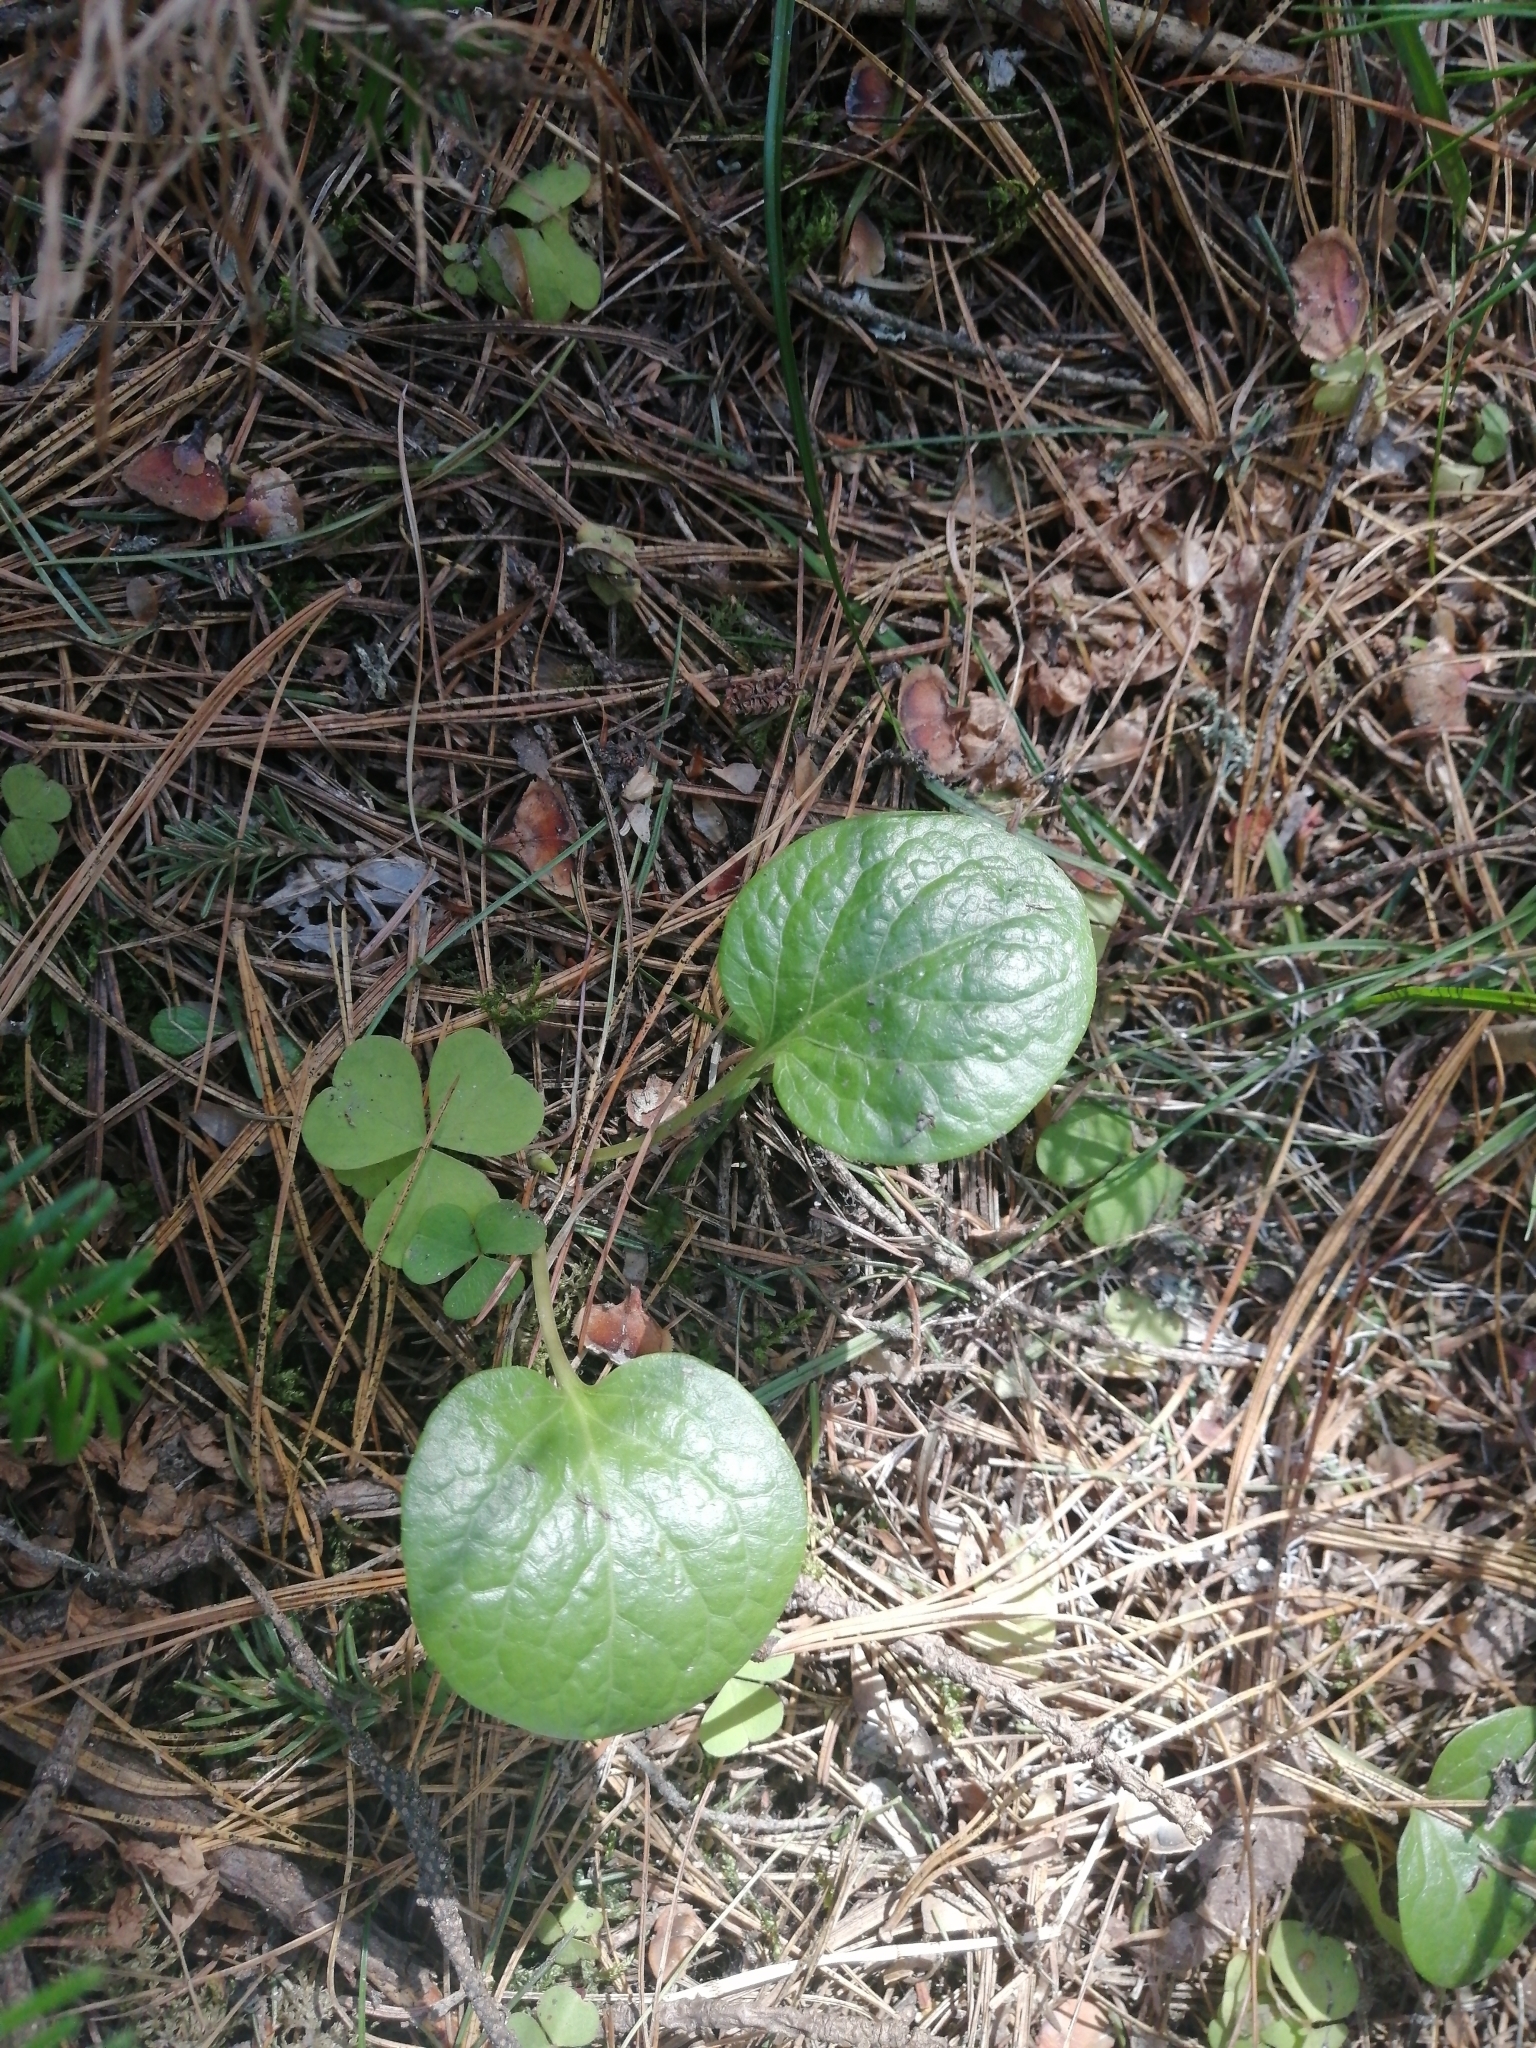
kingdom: Plantae
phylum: Tracheophyta
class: Magnoliopsida
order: Ericales
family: Ericaceae
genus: Pyrola
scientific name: Pyrola
